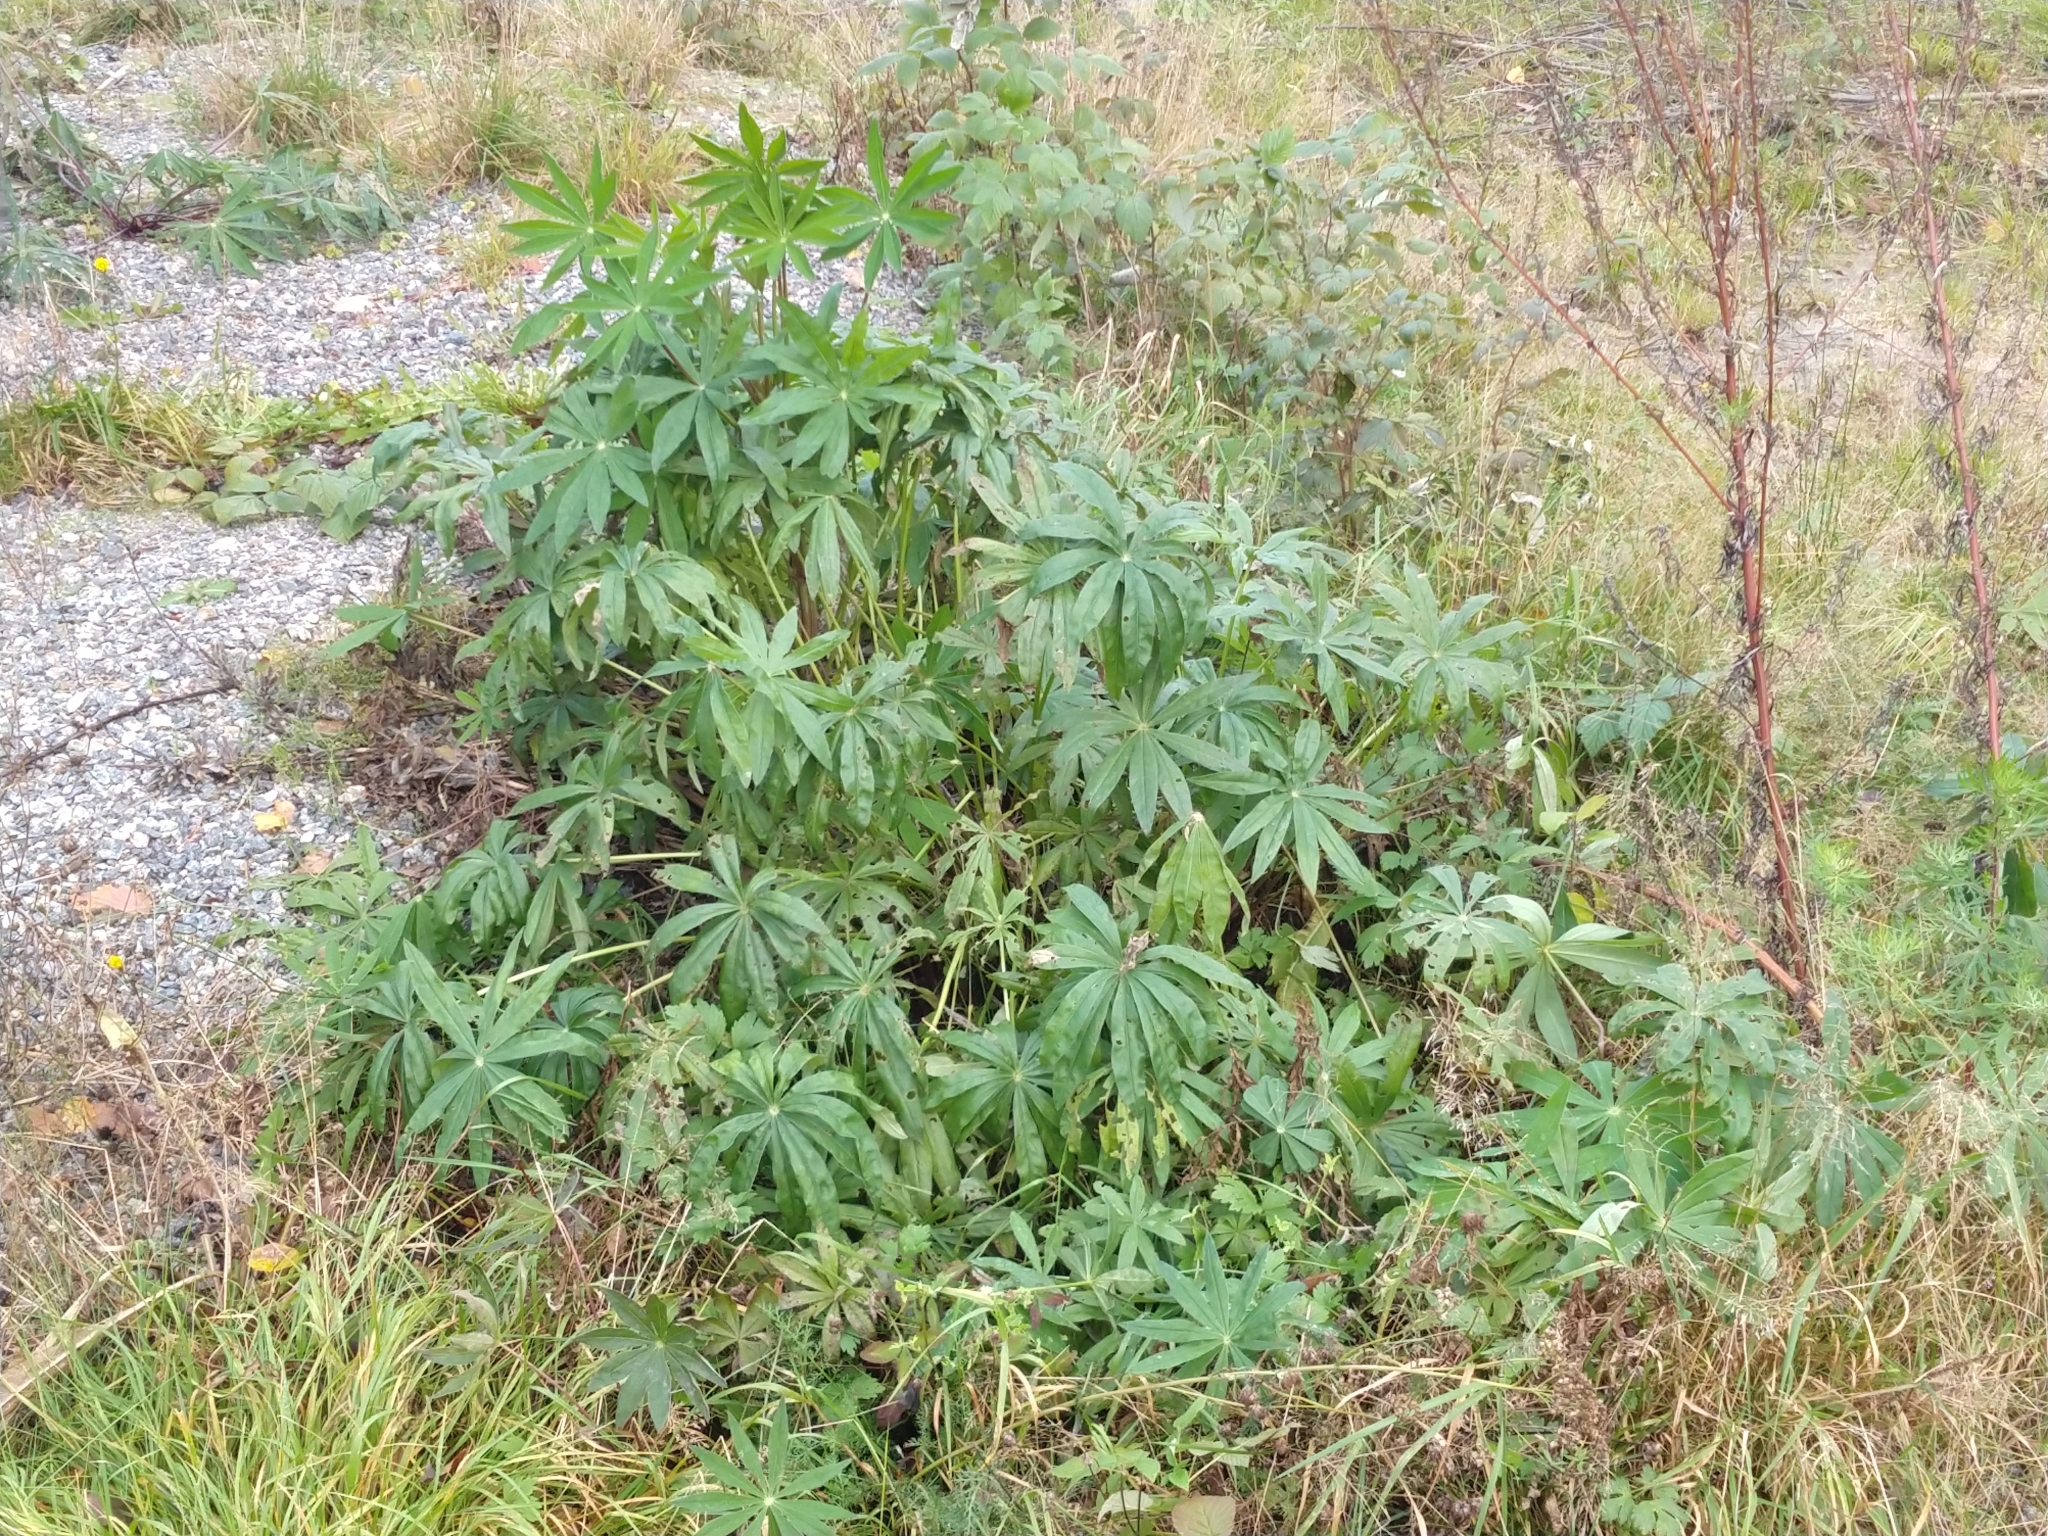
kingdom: Plantae
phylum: Tracheophyta
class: Magnoliopsida
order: Fabales
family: Fabaceae
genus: Lupinus
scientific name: Lupinus polyphyllus
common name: Garden lupin
